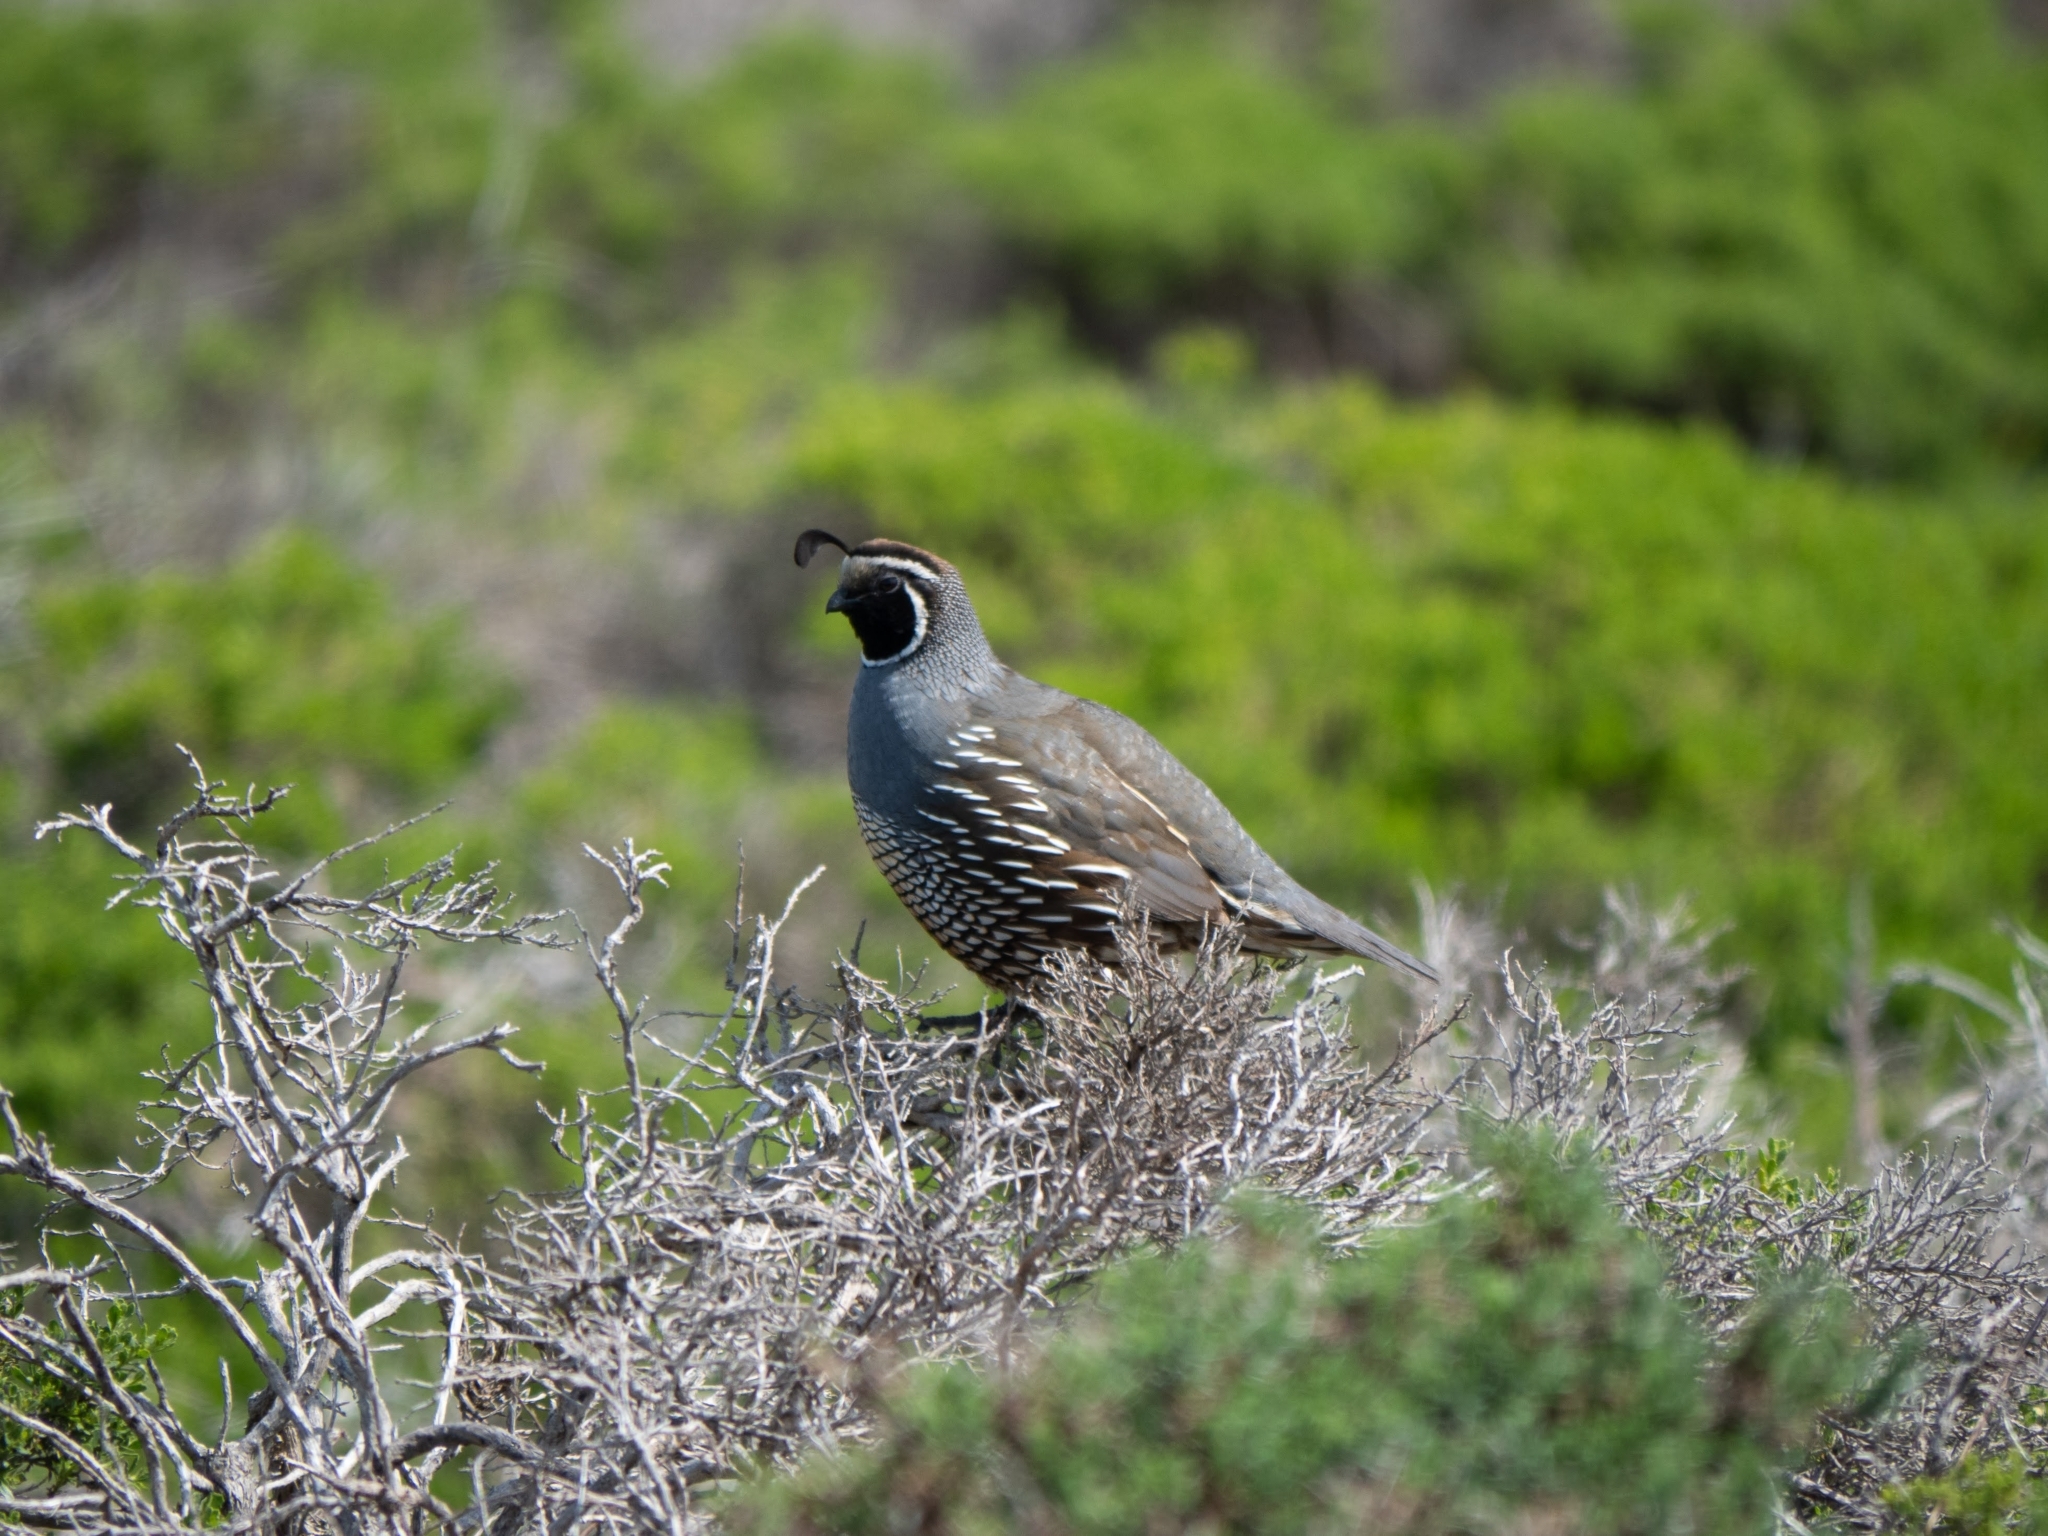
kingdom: Animalia
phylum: Chordata
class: Aves
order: Galliformes
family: Odontophoridae
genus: Callipepla
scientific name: Callipepla californica
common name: California quail
